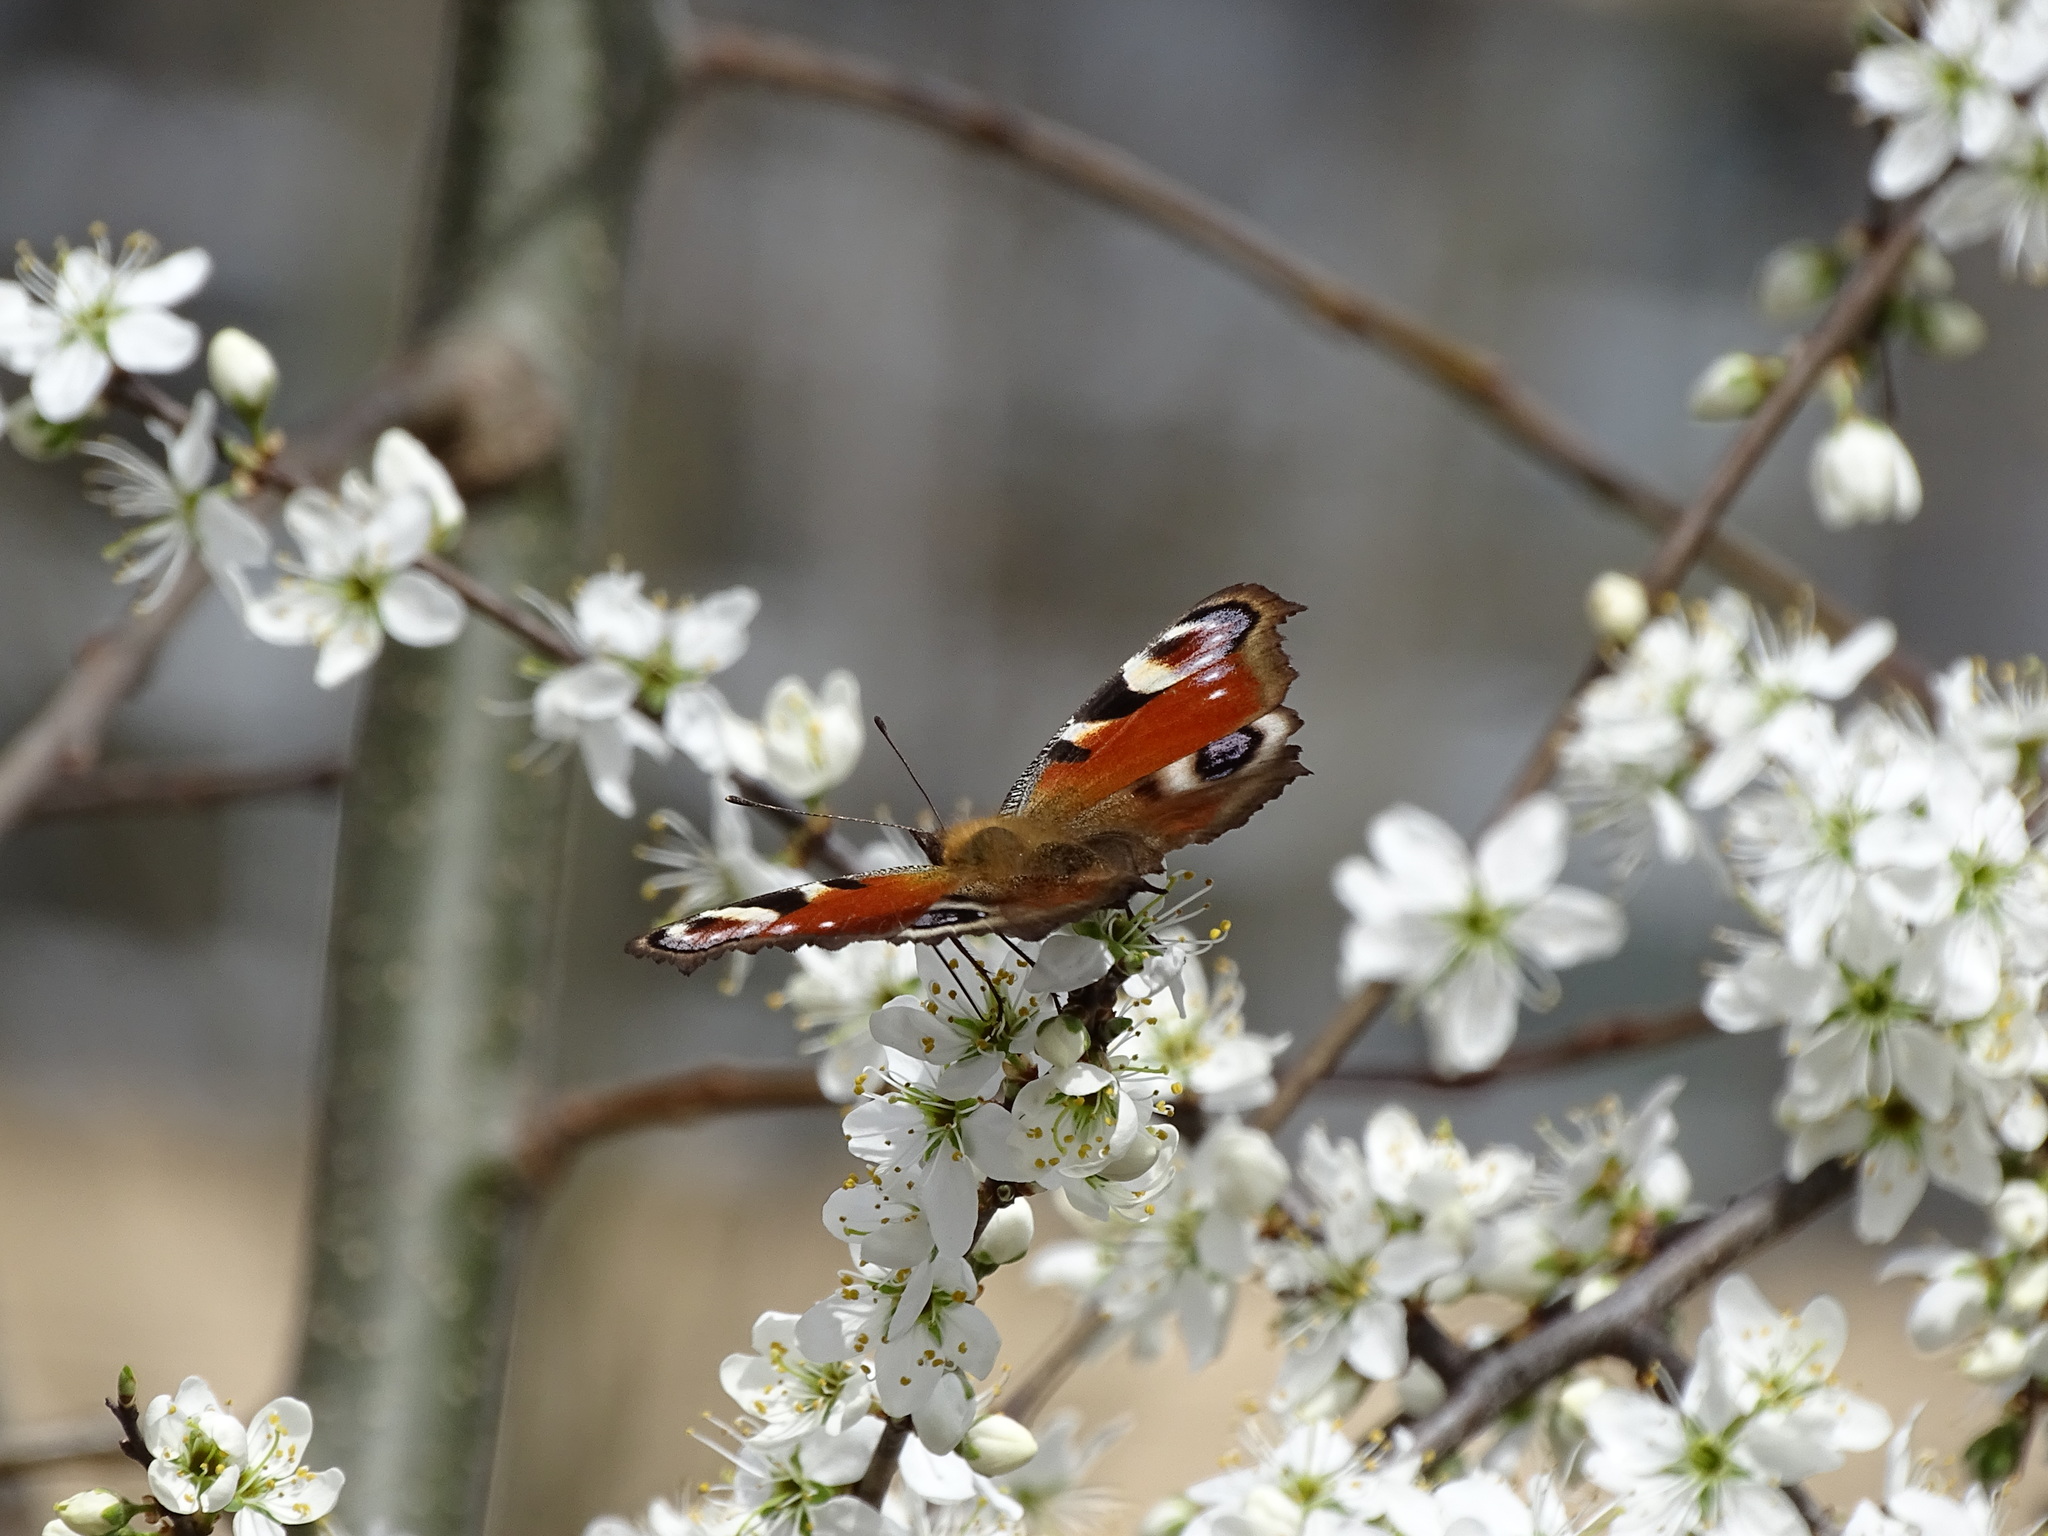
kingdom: Animalia
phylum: Arthropoda
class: Insecta
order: Lepidoptera
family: Nymphalidae
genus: Aglais
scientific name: Aglais io
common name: Peacock
